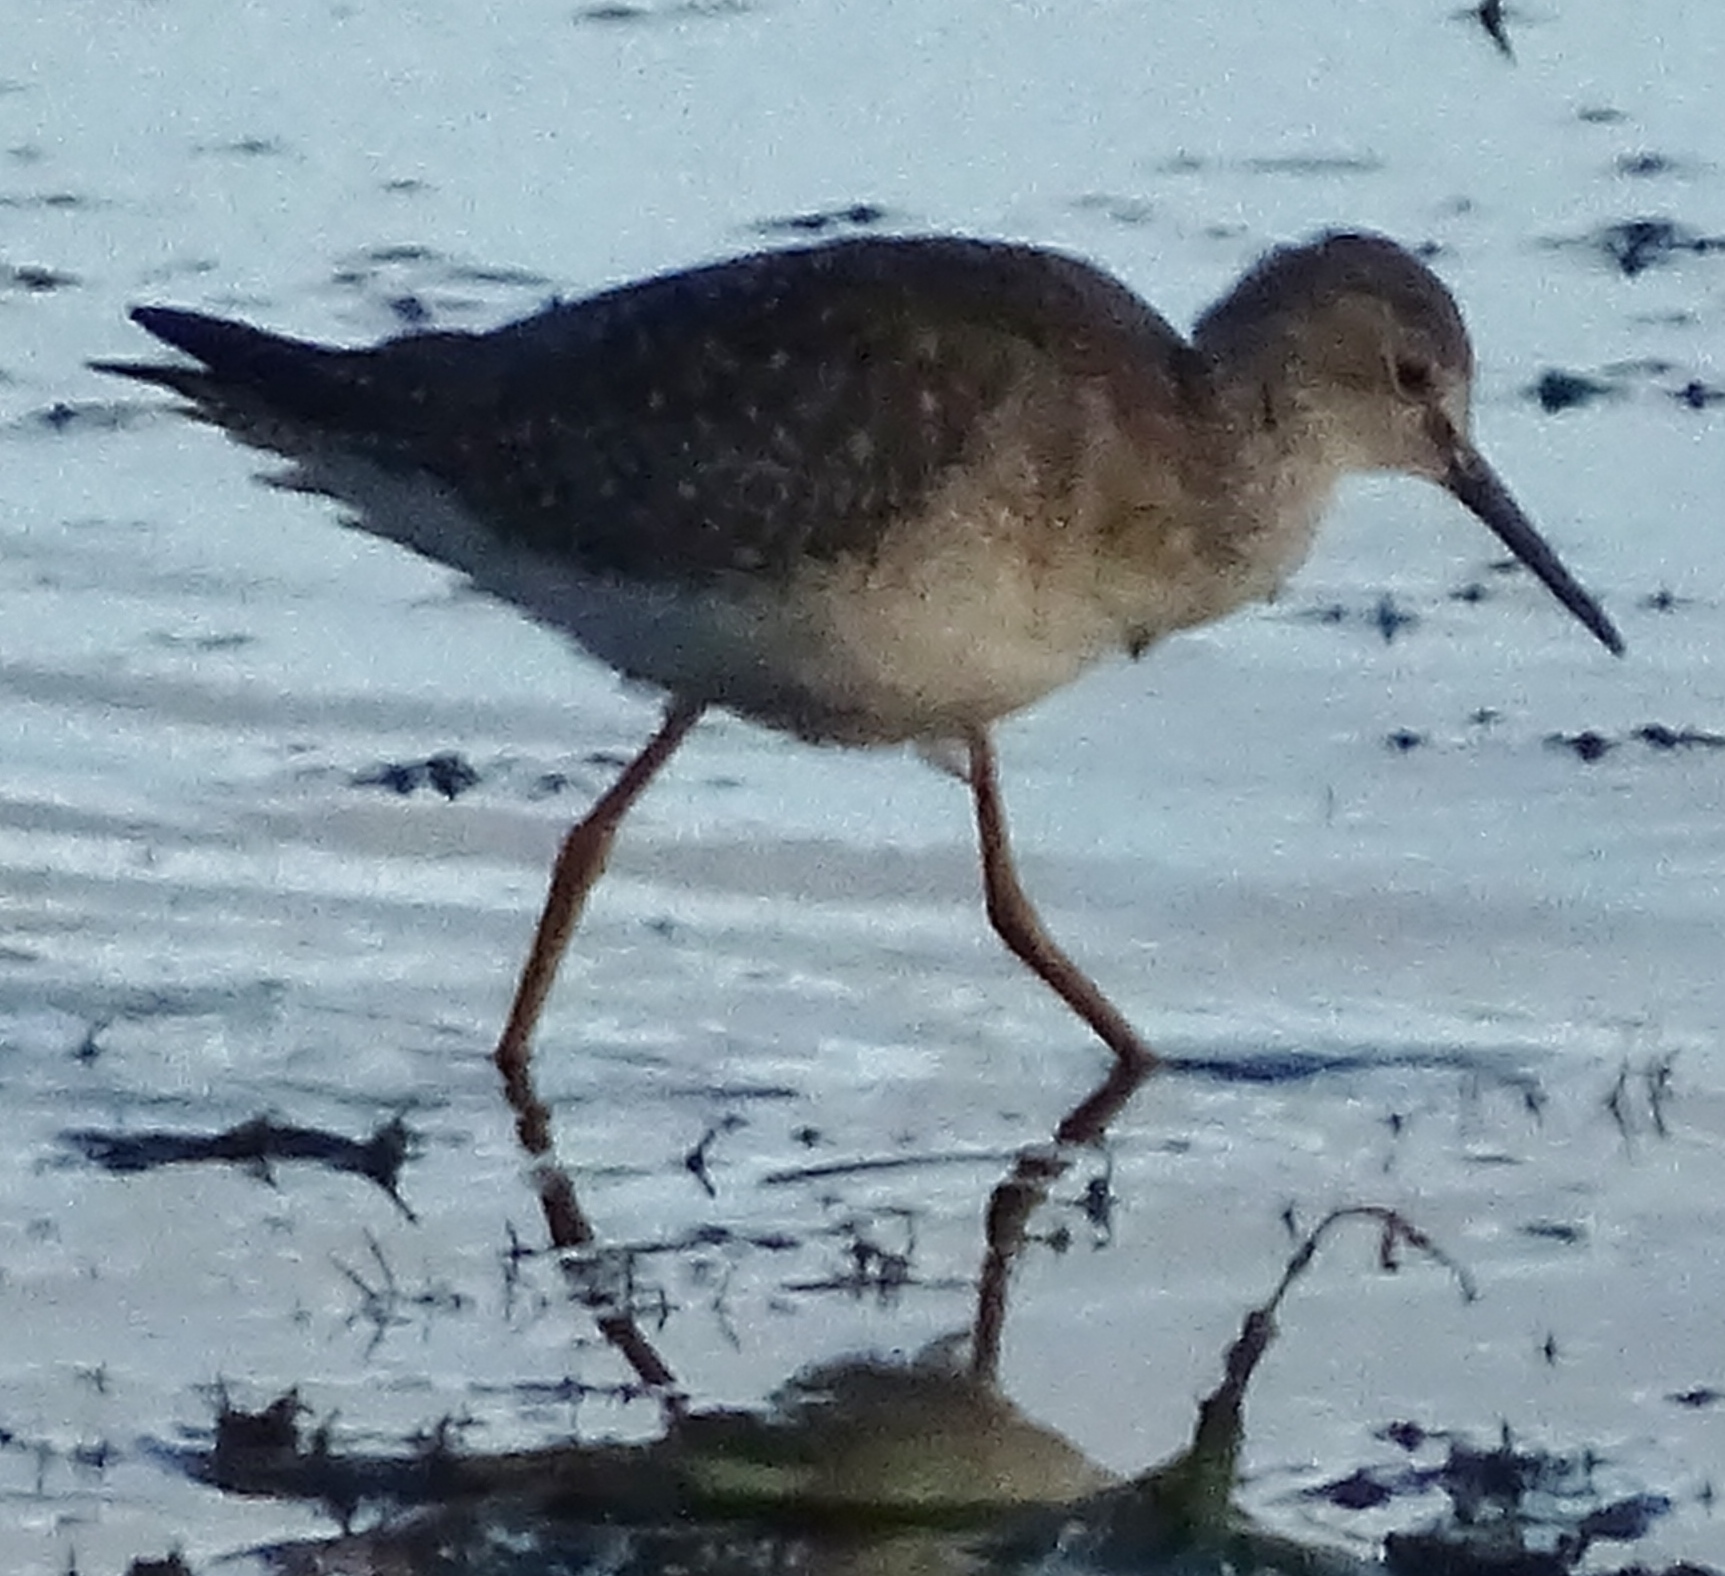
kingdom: Animalia
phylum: Chordata
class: Aves
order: Charadriiformes
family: Scolopacidae
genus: Tringa
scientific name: Tringa flavipes
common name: Lesser yellowlegs
